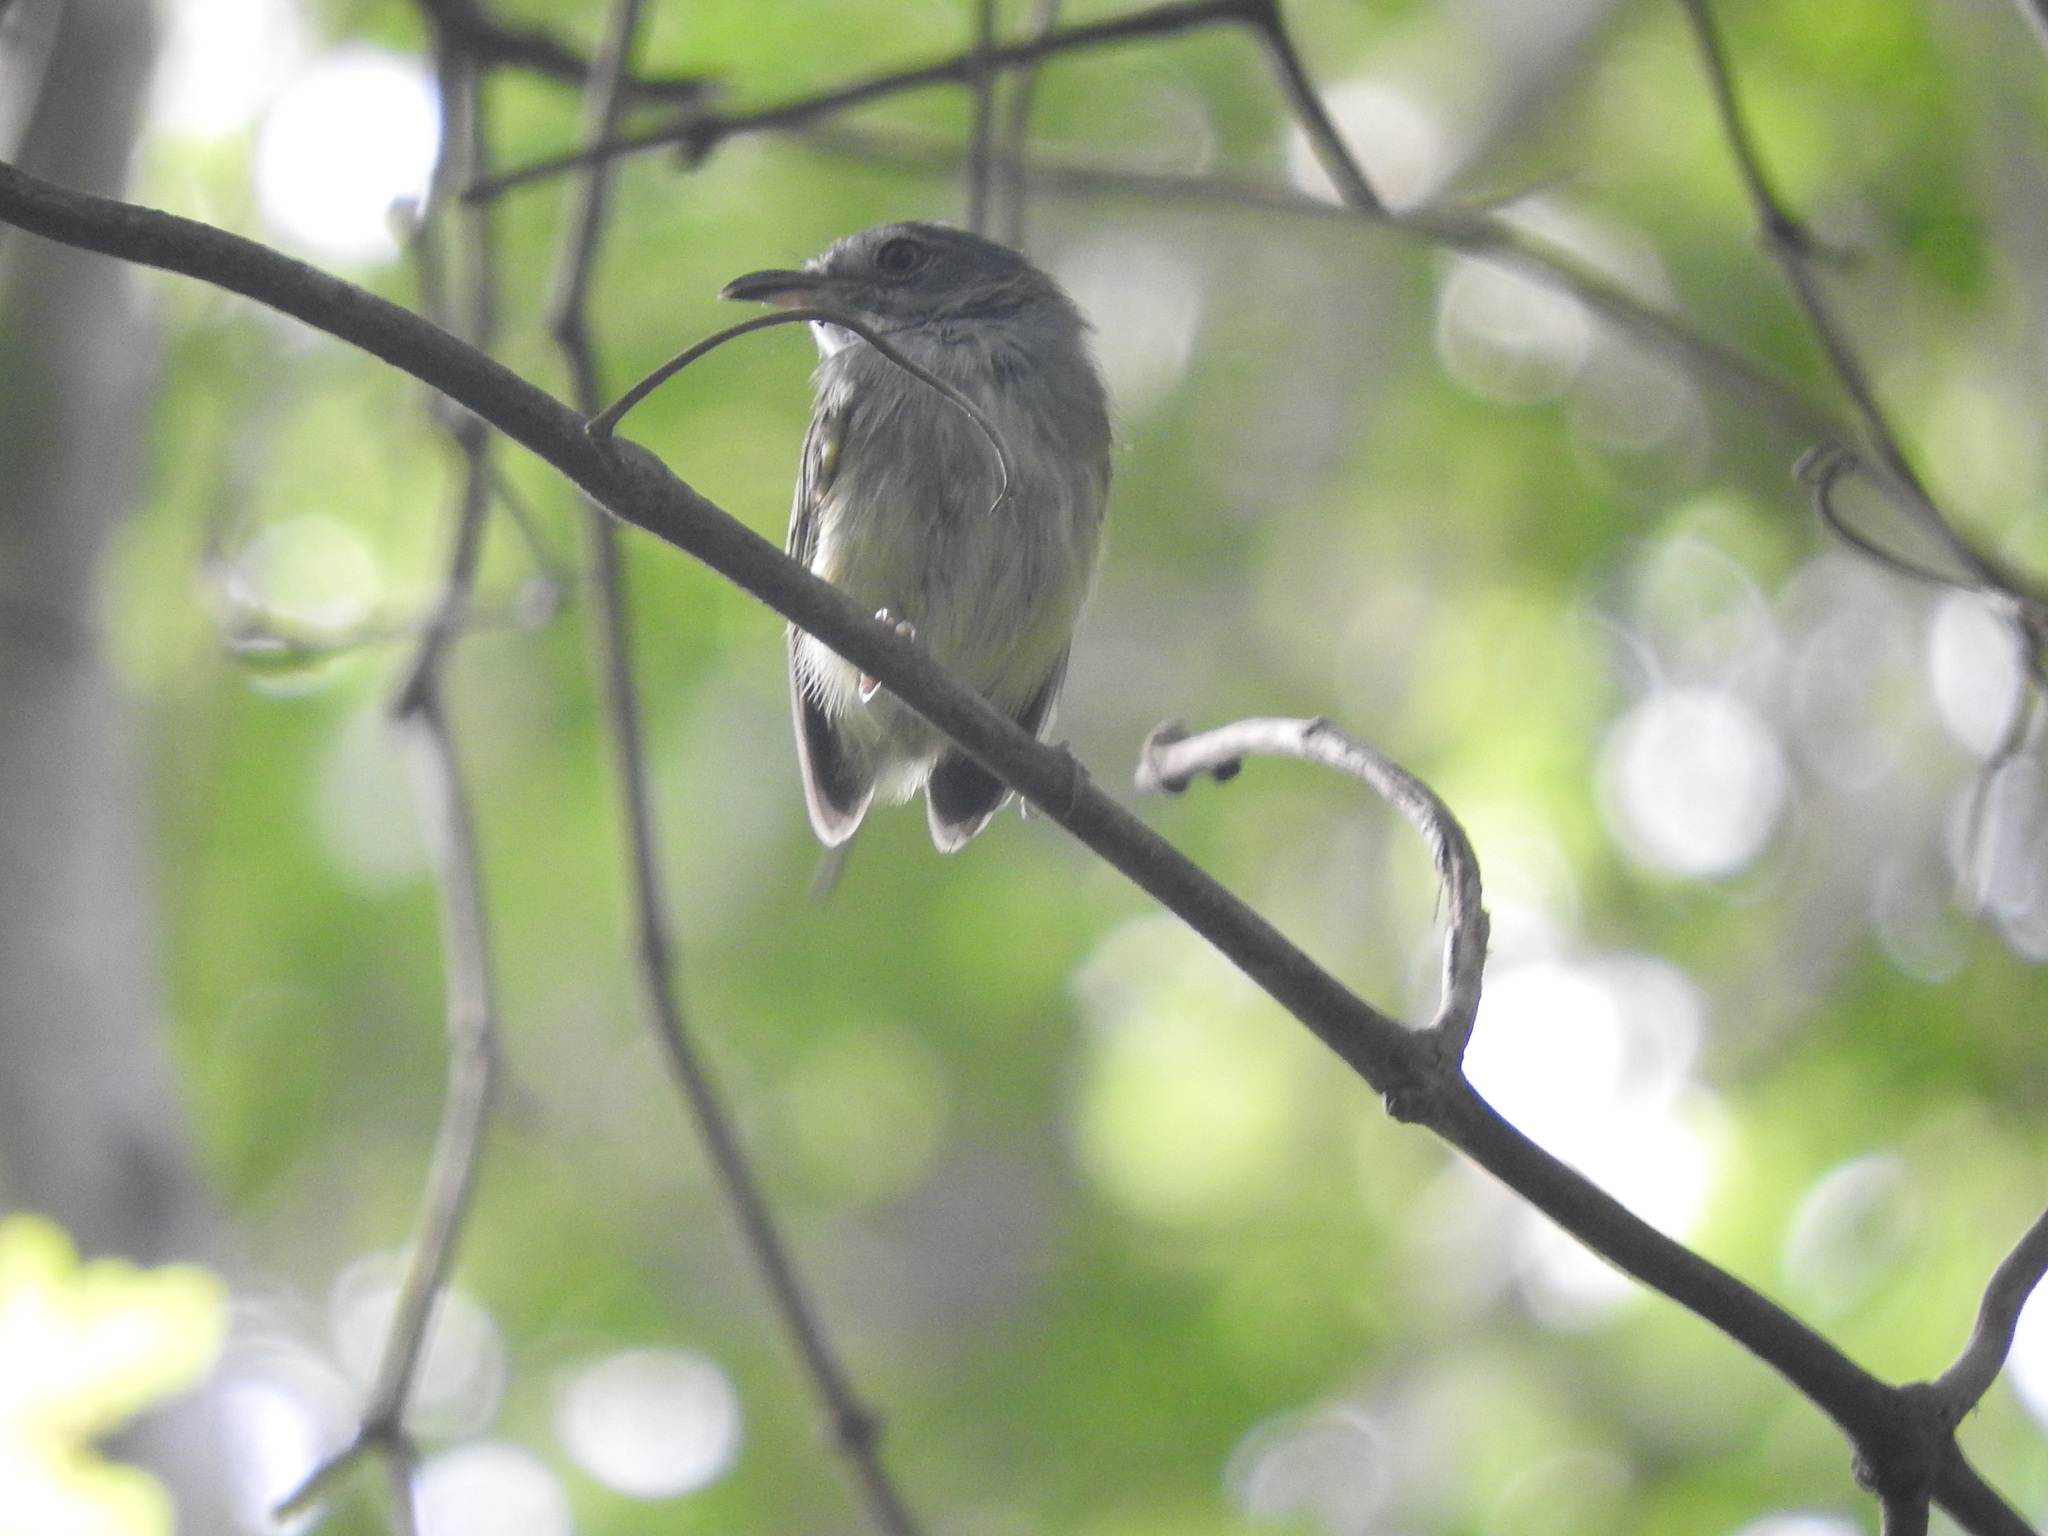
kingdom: Animalia
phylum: Chordata
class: Aves
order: Passeriformes
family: Tyrannidae
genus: Oncostoma
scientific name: Oncostoma cinereigulare
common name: Northern bentbill
